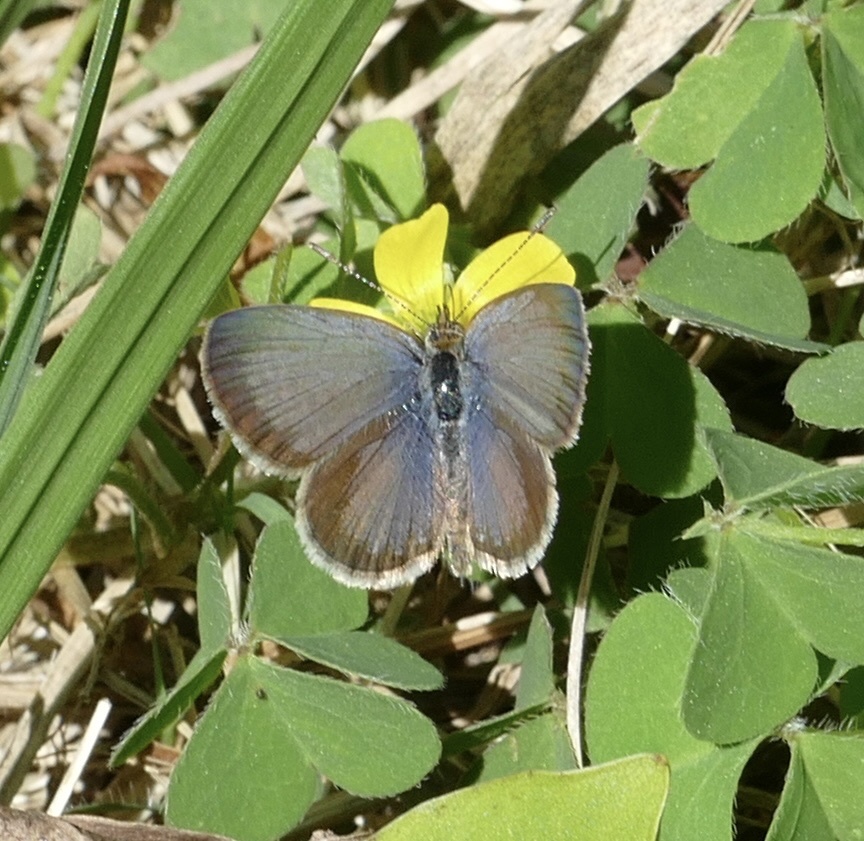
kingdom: Animalia
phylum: Arthropoda
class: Insecta
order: Lepidoptera
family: Lycaenidae
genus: Zizeeria
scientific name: Zizeeria knysna
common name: African grass blue
